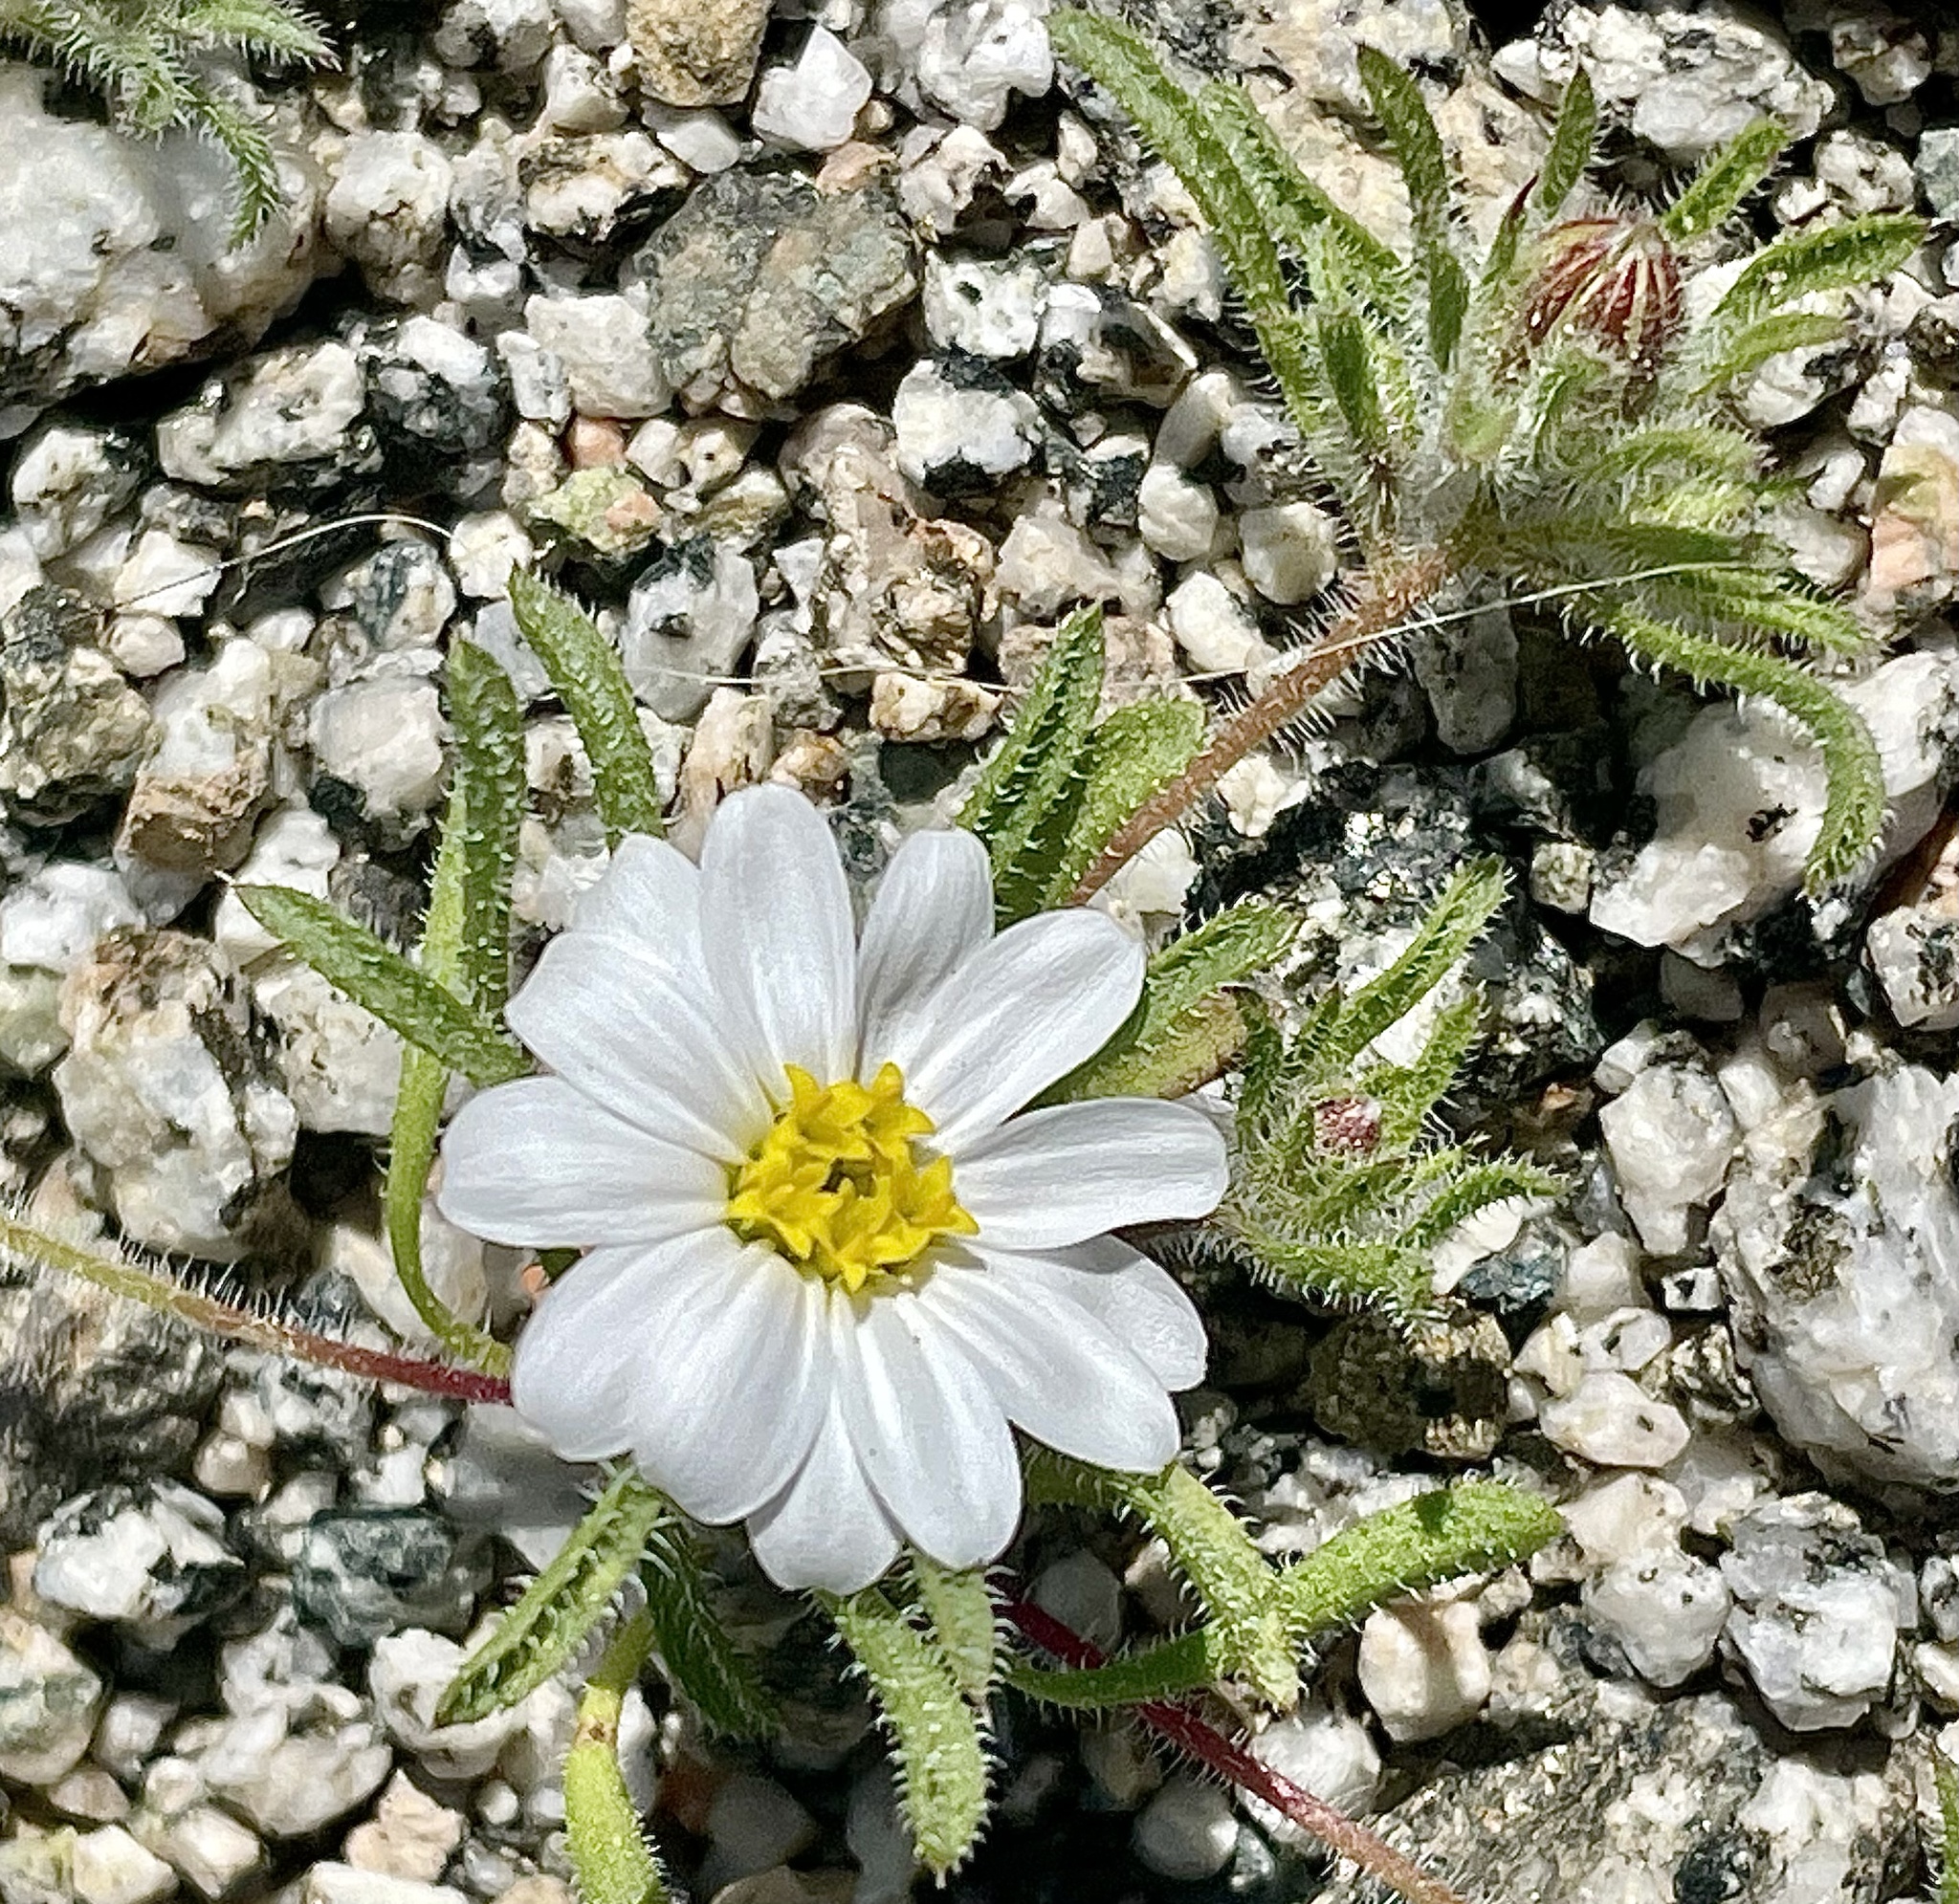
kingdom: Plantae
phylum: Tracheophyta
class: Magnoliopsida
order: Asterales
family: Asteraceae
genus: Monoptilon
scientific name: Monoptilon bellioides
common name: Bristly desertstar
